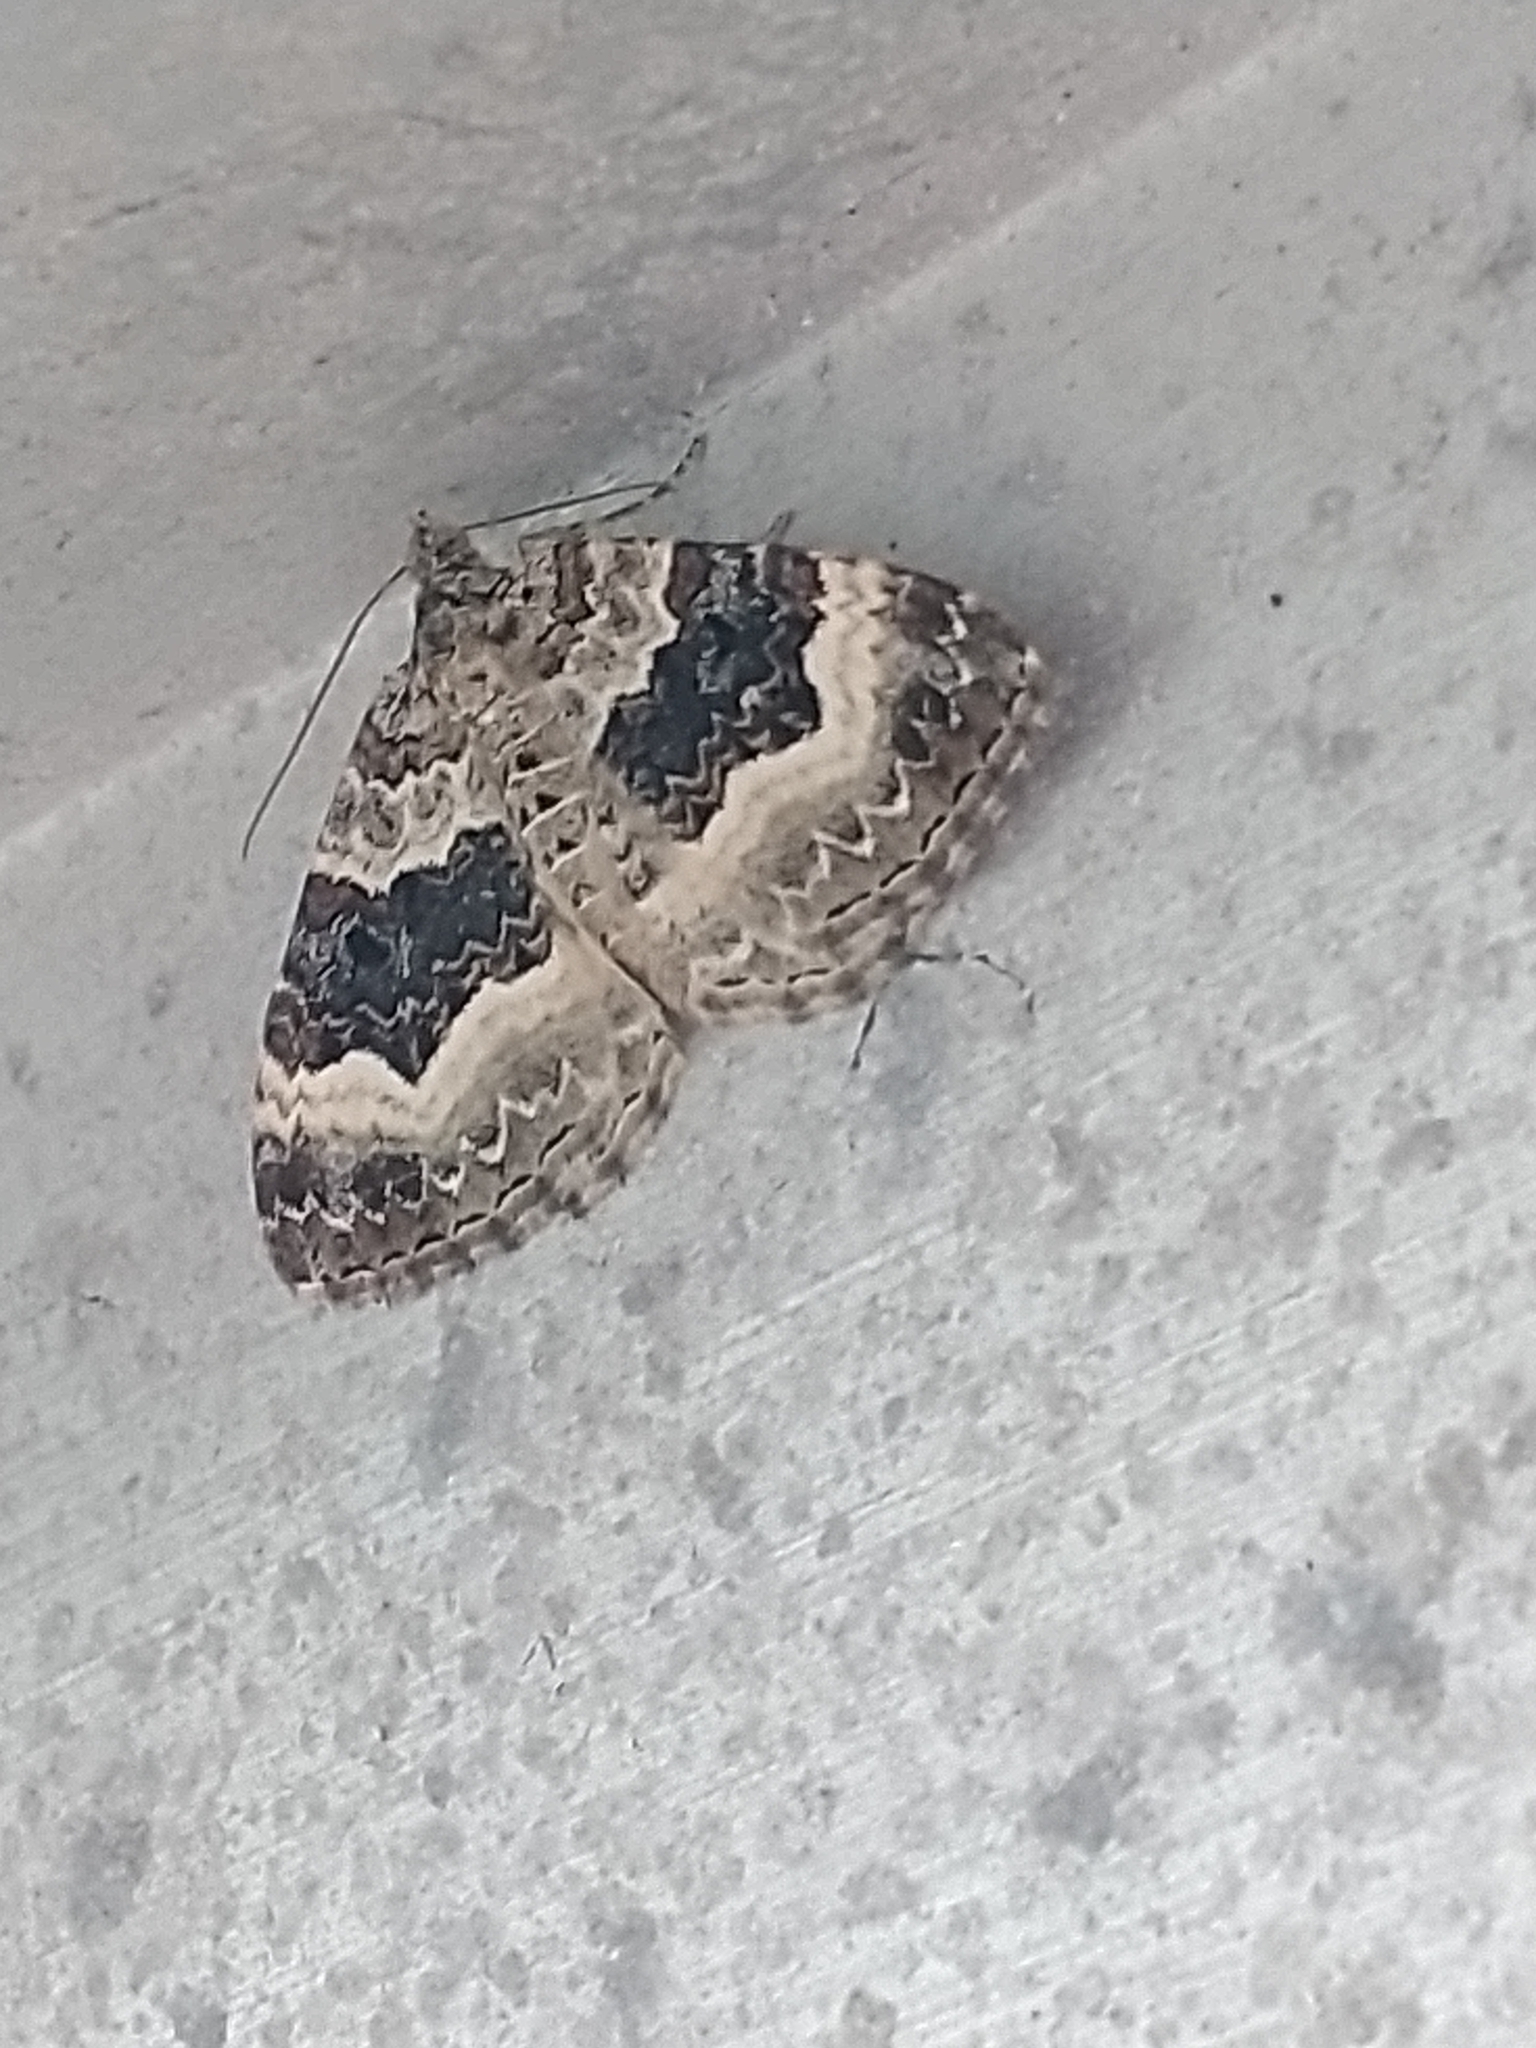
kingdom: Animalia
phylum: Arthropoda
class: Insecta
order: Lepidoptera
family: Geometridae
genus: Epirrhoe
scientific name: Epirrhoe alternata
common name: Common carpet
